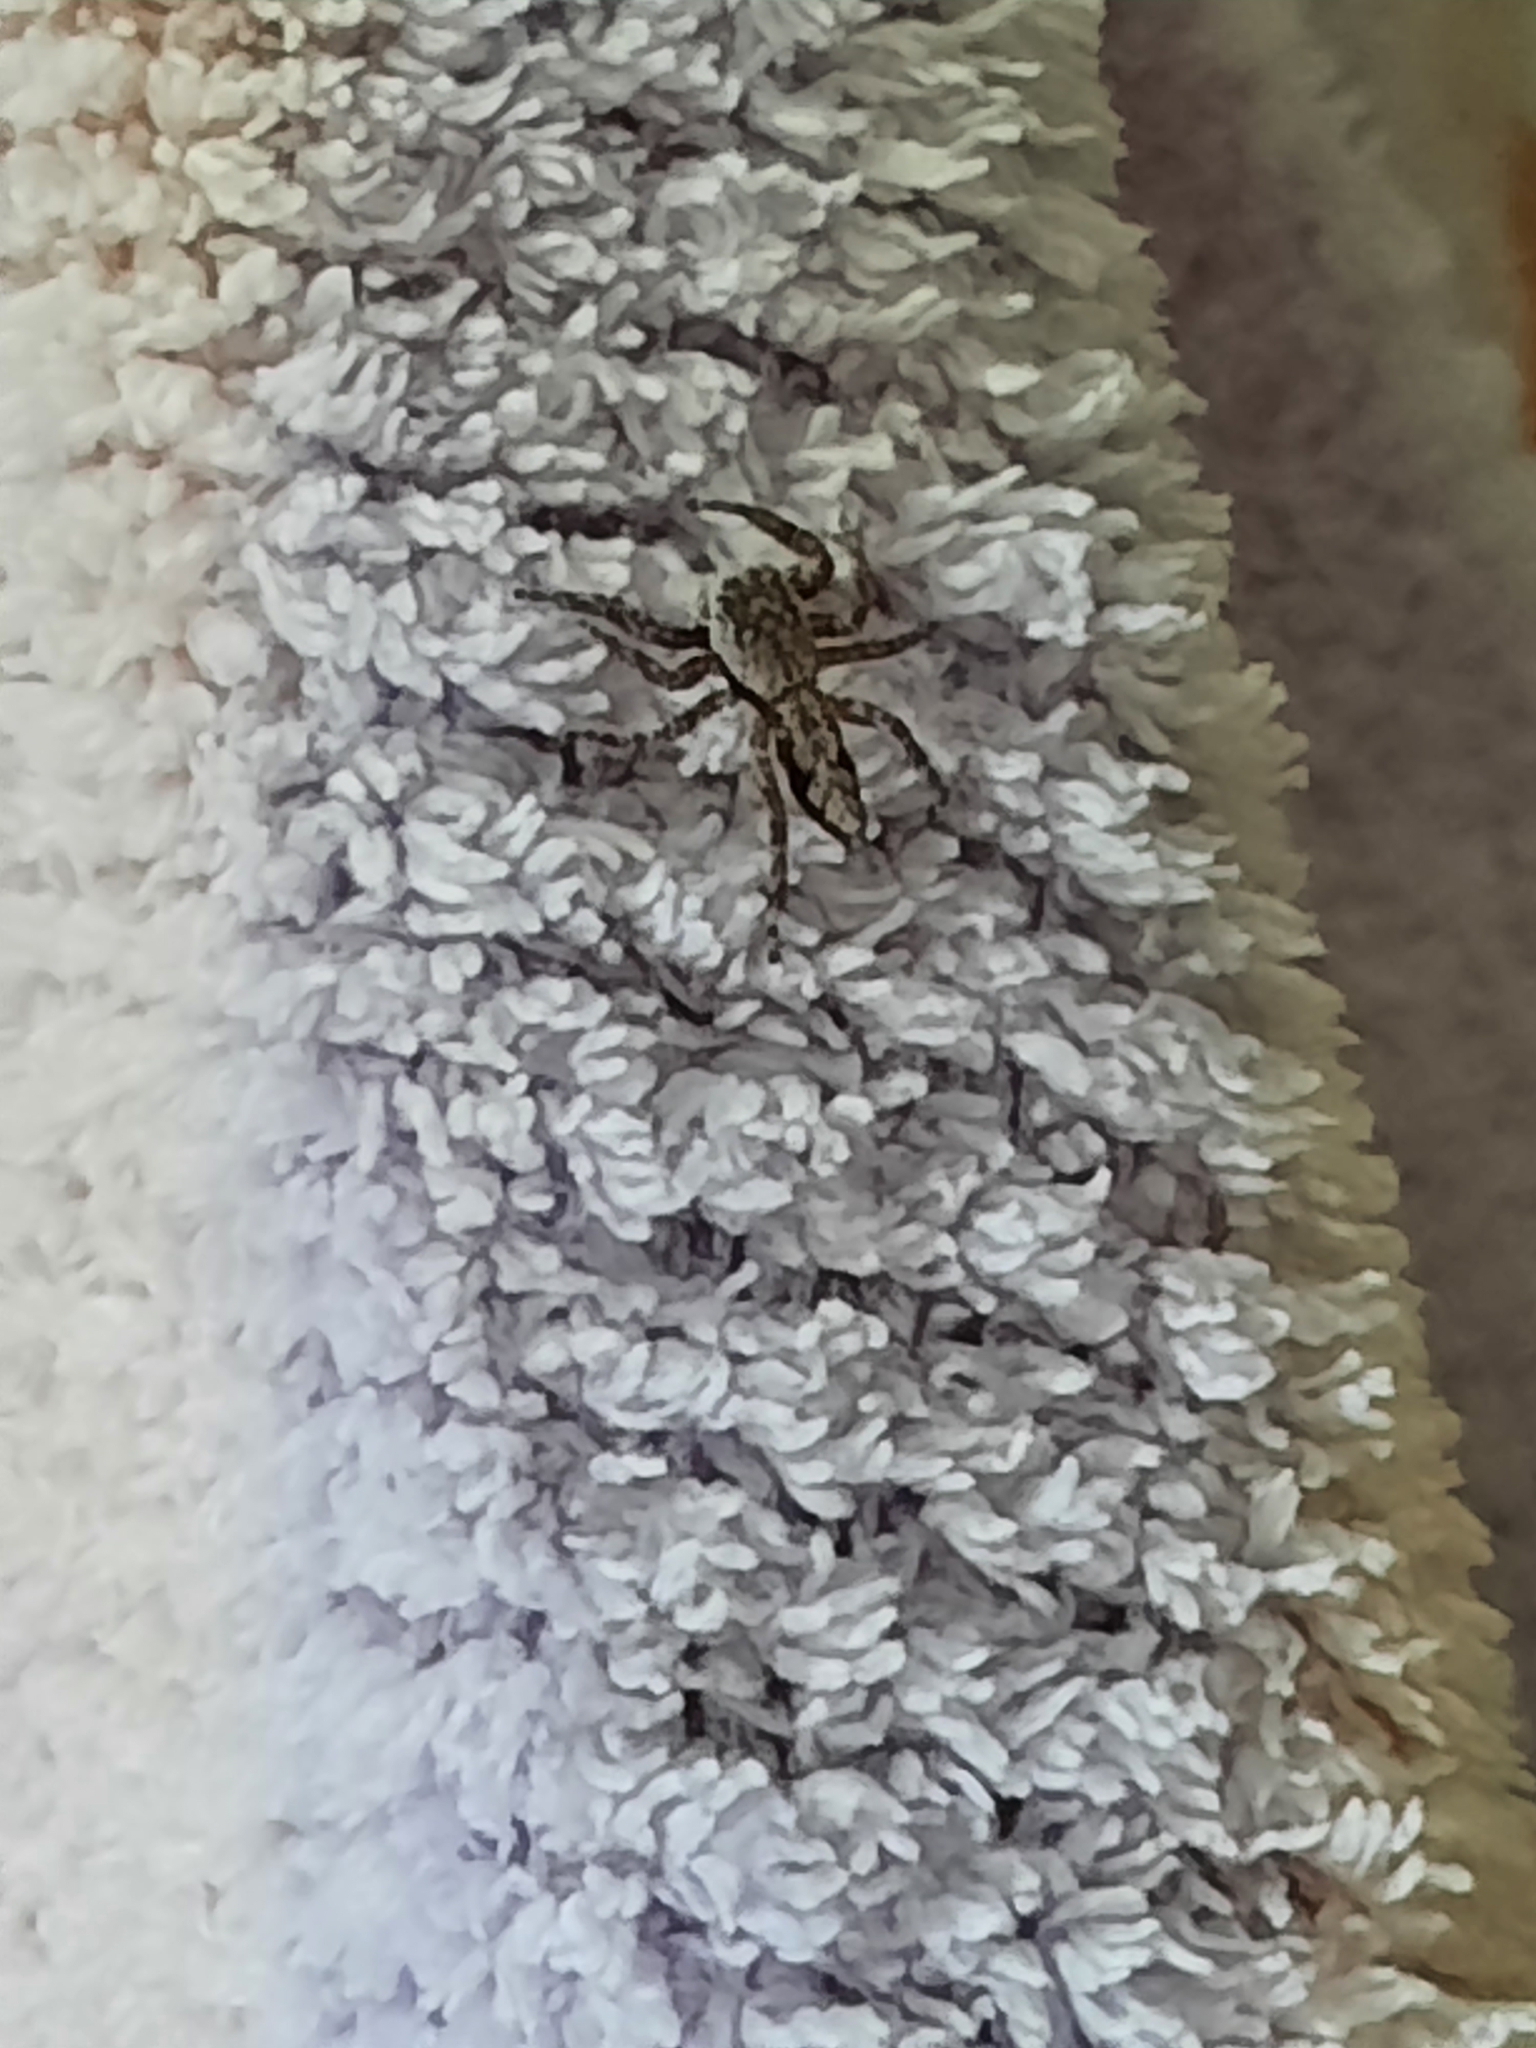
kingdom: Animalia
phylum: Arthropoda
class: Arachnida
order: Araneae
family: Salticidae
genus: Platycryptus
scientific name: Platycryptus undatus
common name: Tan jumping spider
